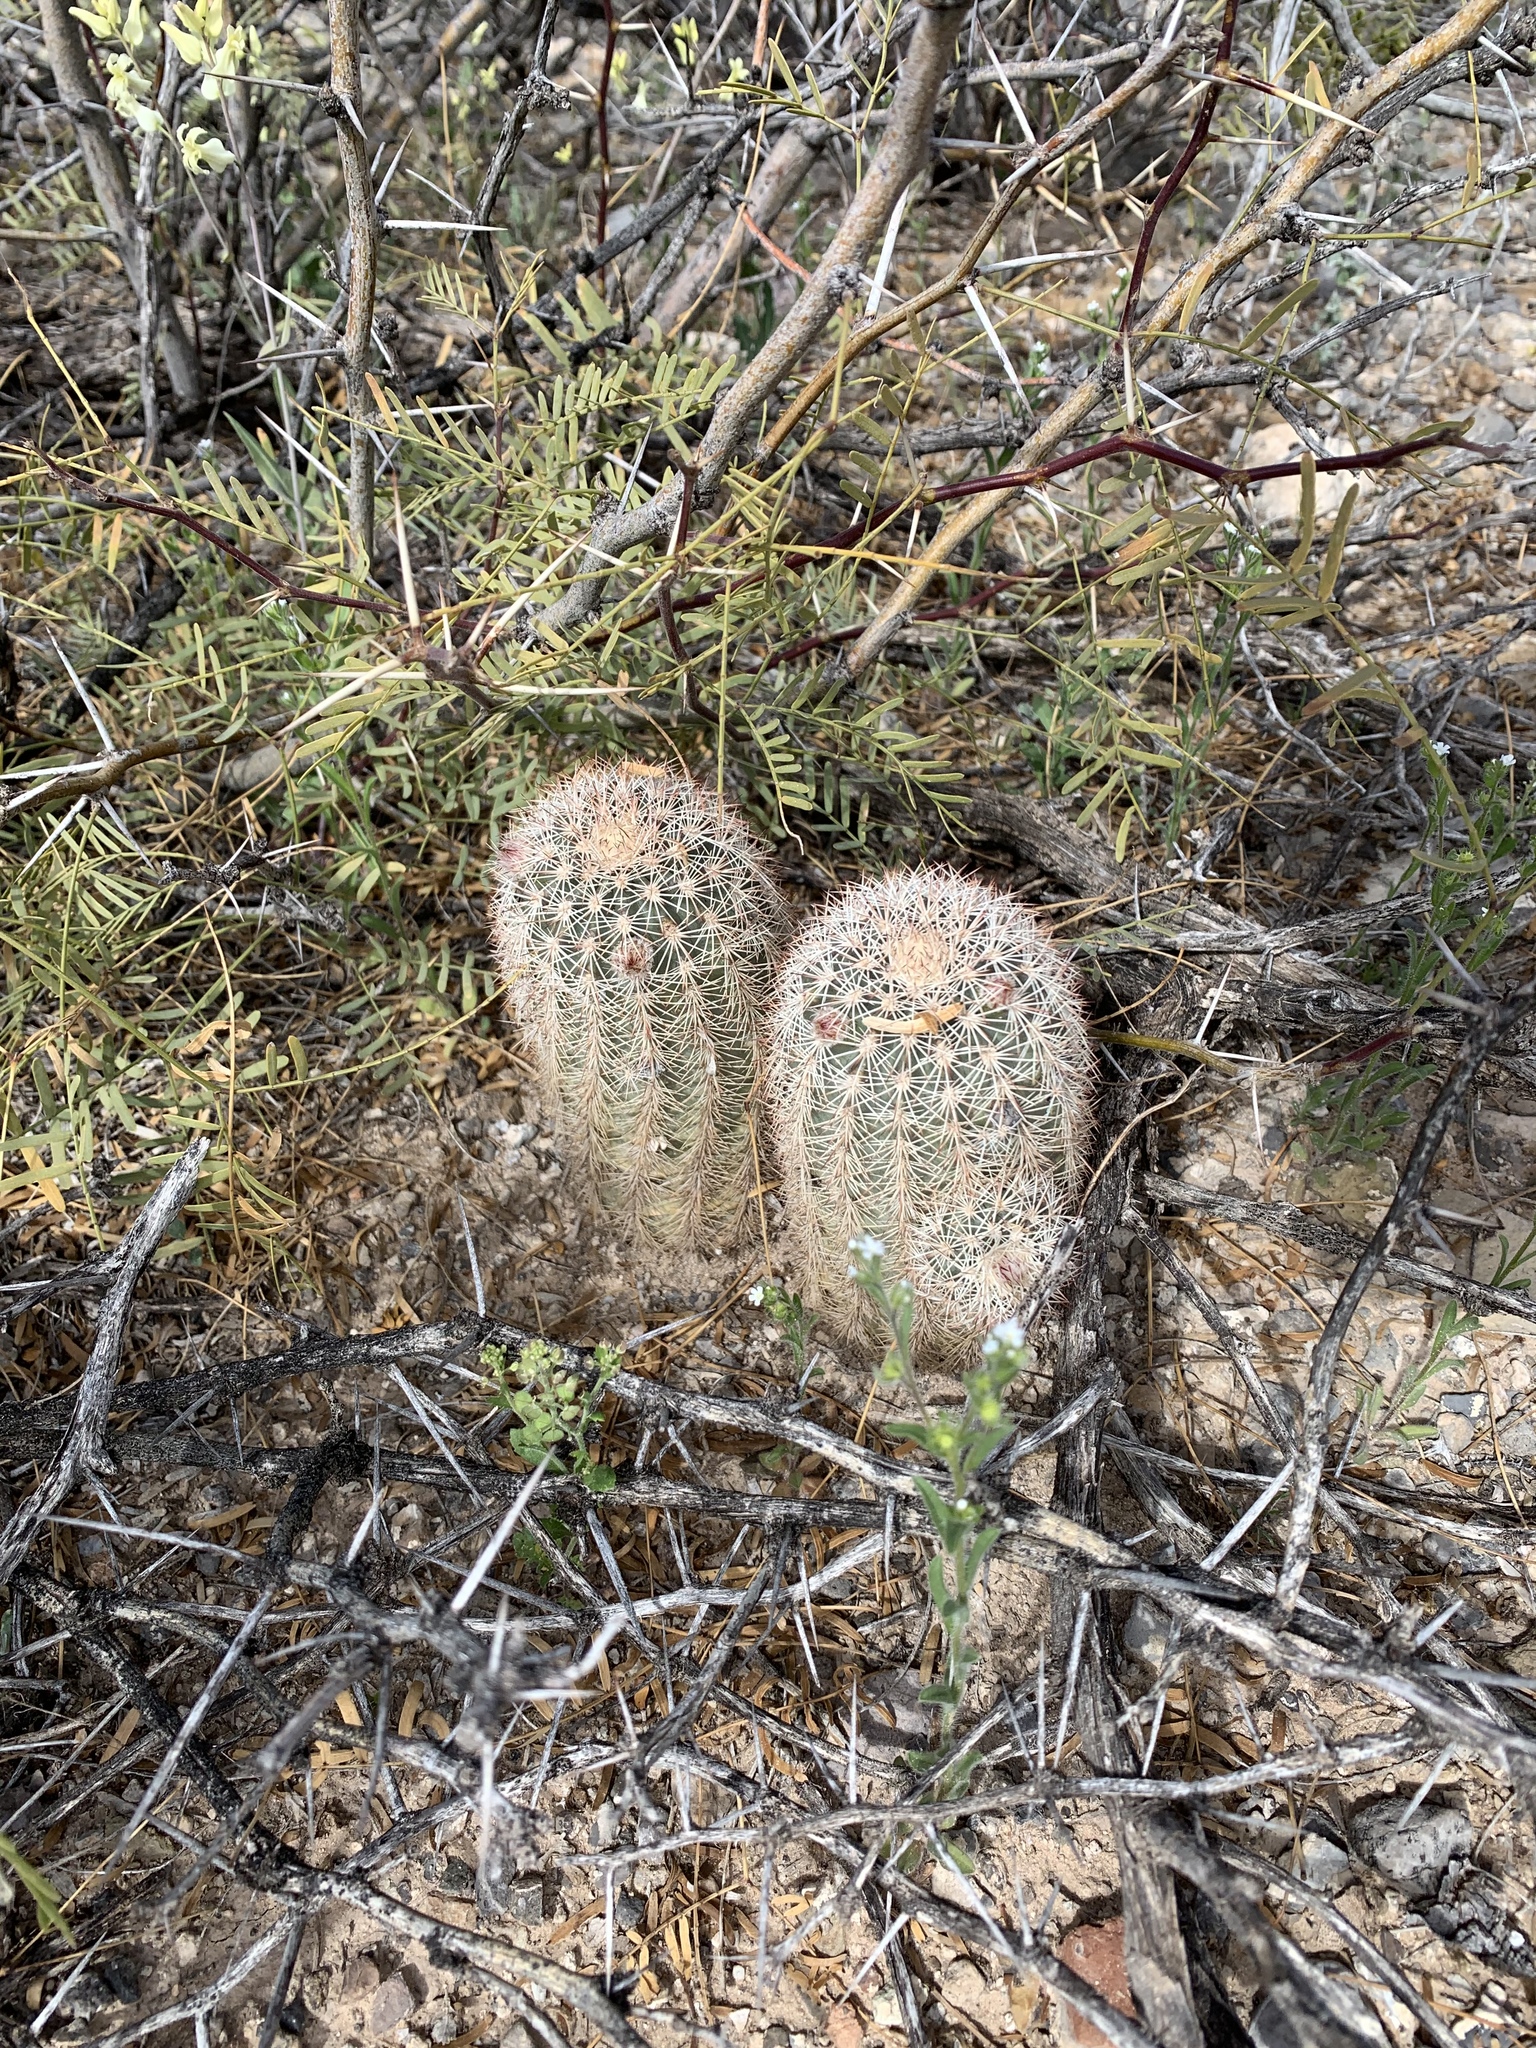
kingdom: Plantae
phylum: Tracheophyta
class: Magnoliopsida
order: Caryophyllales
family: Cactaceae
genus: Echinocereus
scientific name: Echinocereus dasyacanthus
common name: Spiny hedgehog cactus
